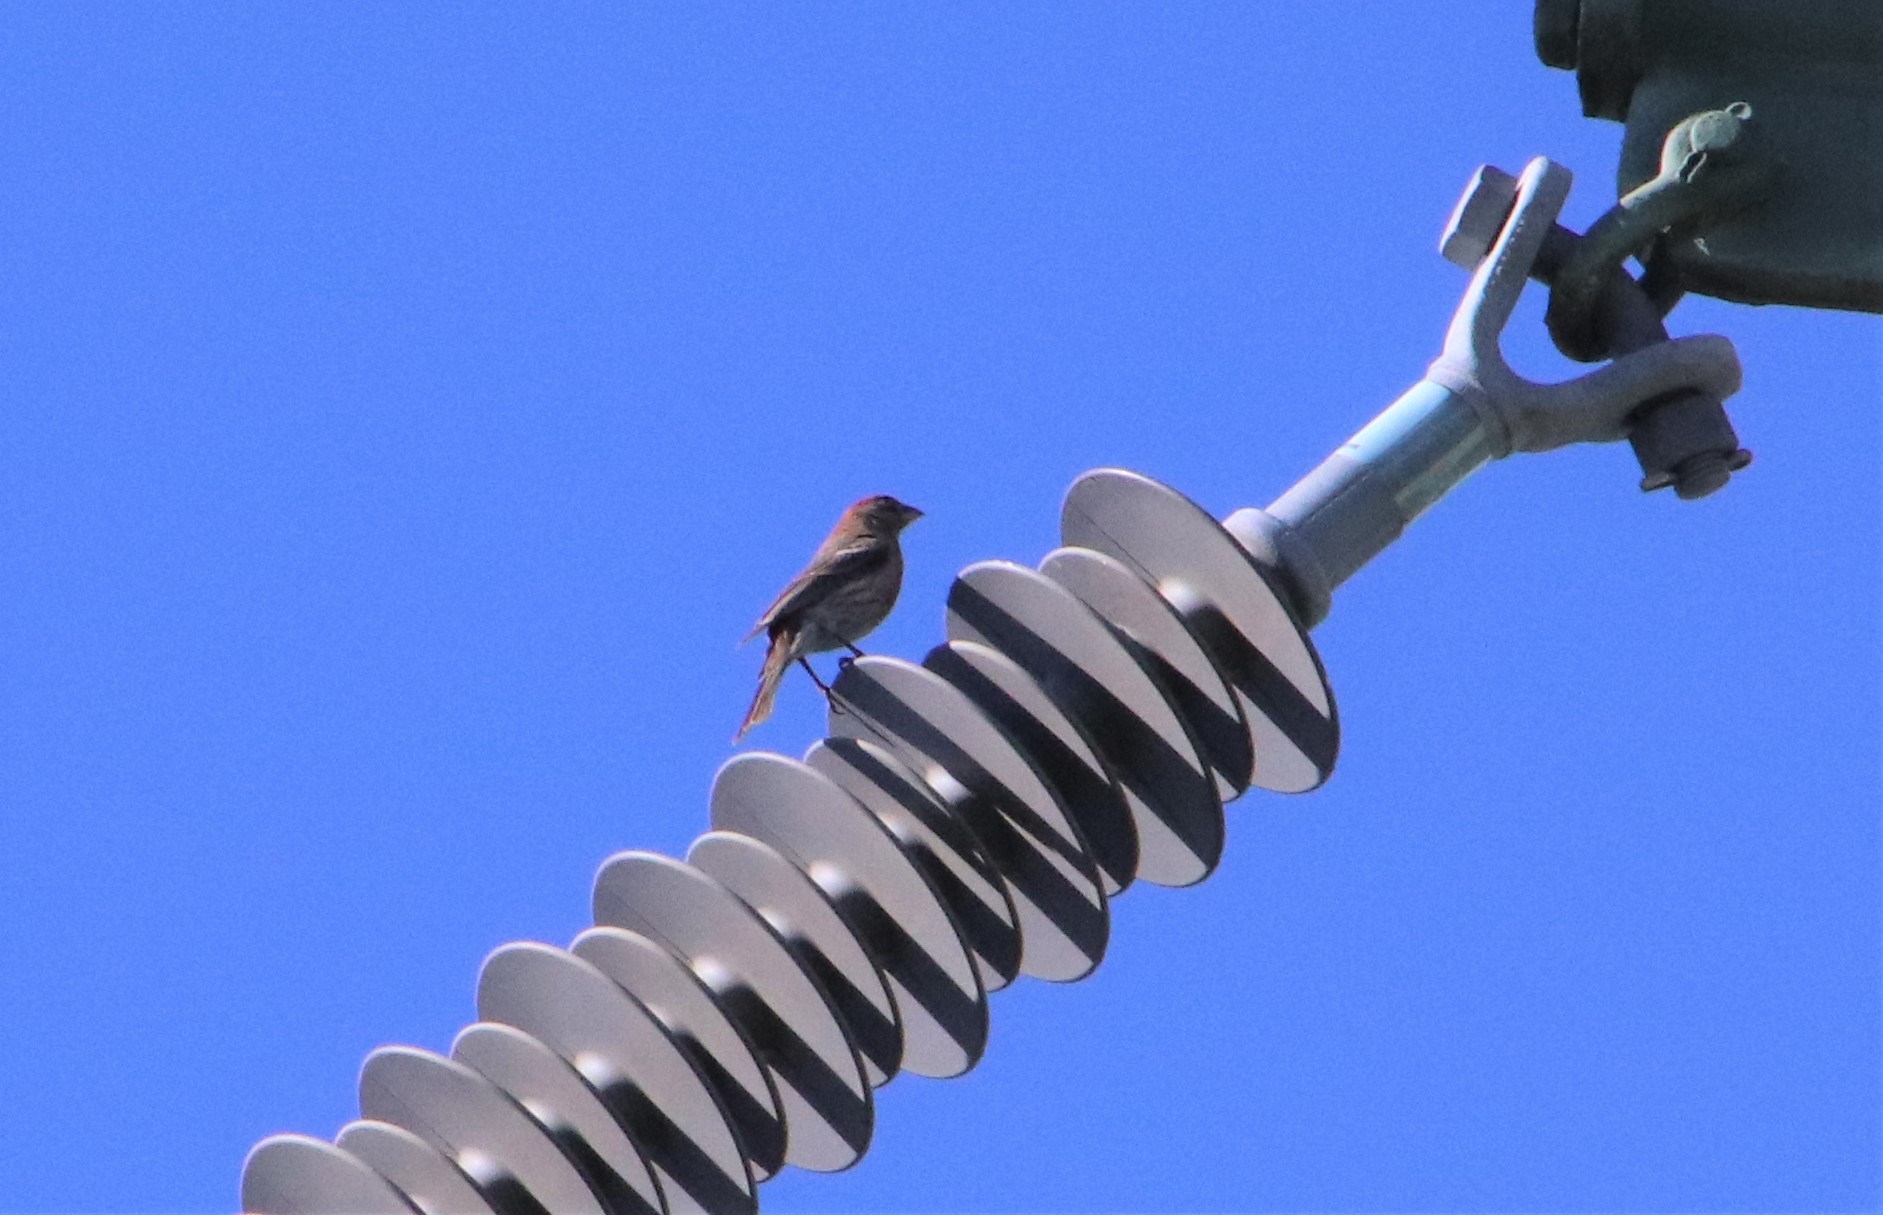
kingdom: Animalia
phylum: Chordata
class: Aves
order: Passeriformes
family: Fringillidae
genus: Haemorhous
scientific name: Haemorhous mexicanus
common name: House finch
